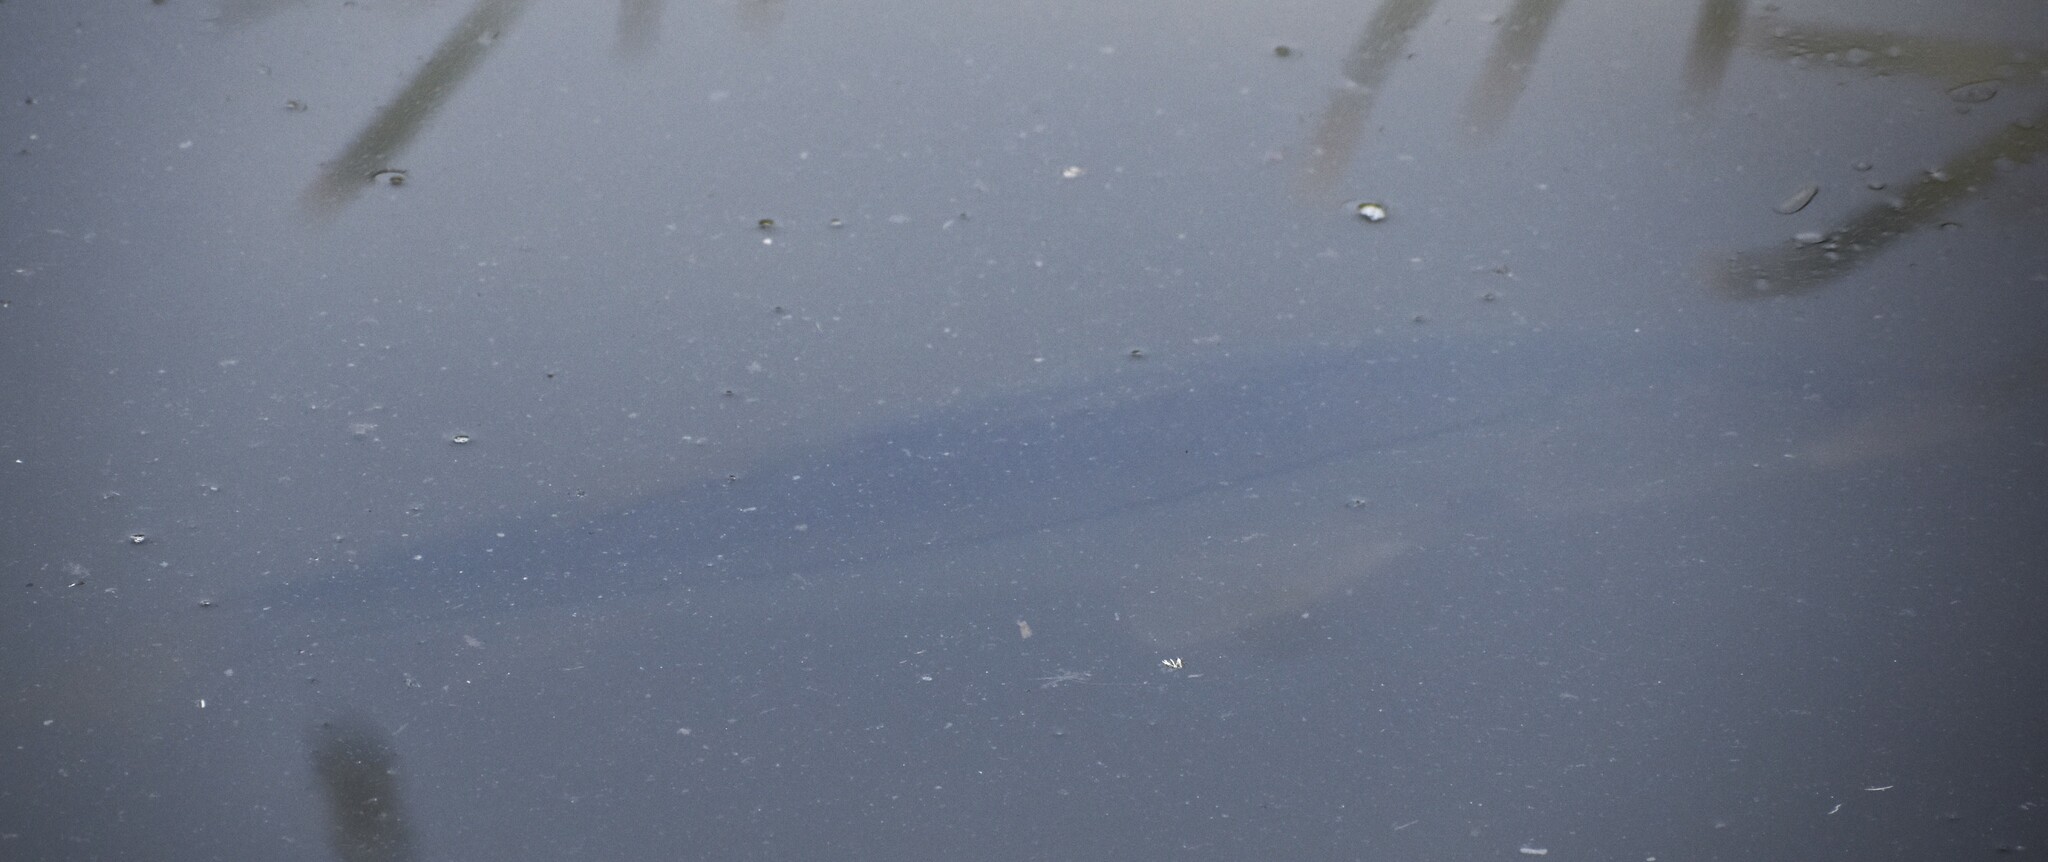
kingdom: Animalia
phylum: Chordata
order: Perciformes
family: Centropomidae
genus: Centropomus
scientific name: Centropomus undecimalis
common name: Snook
